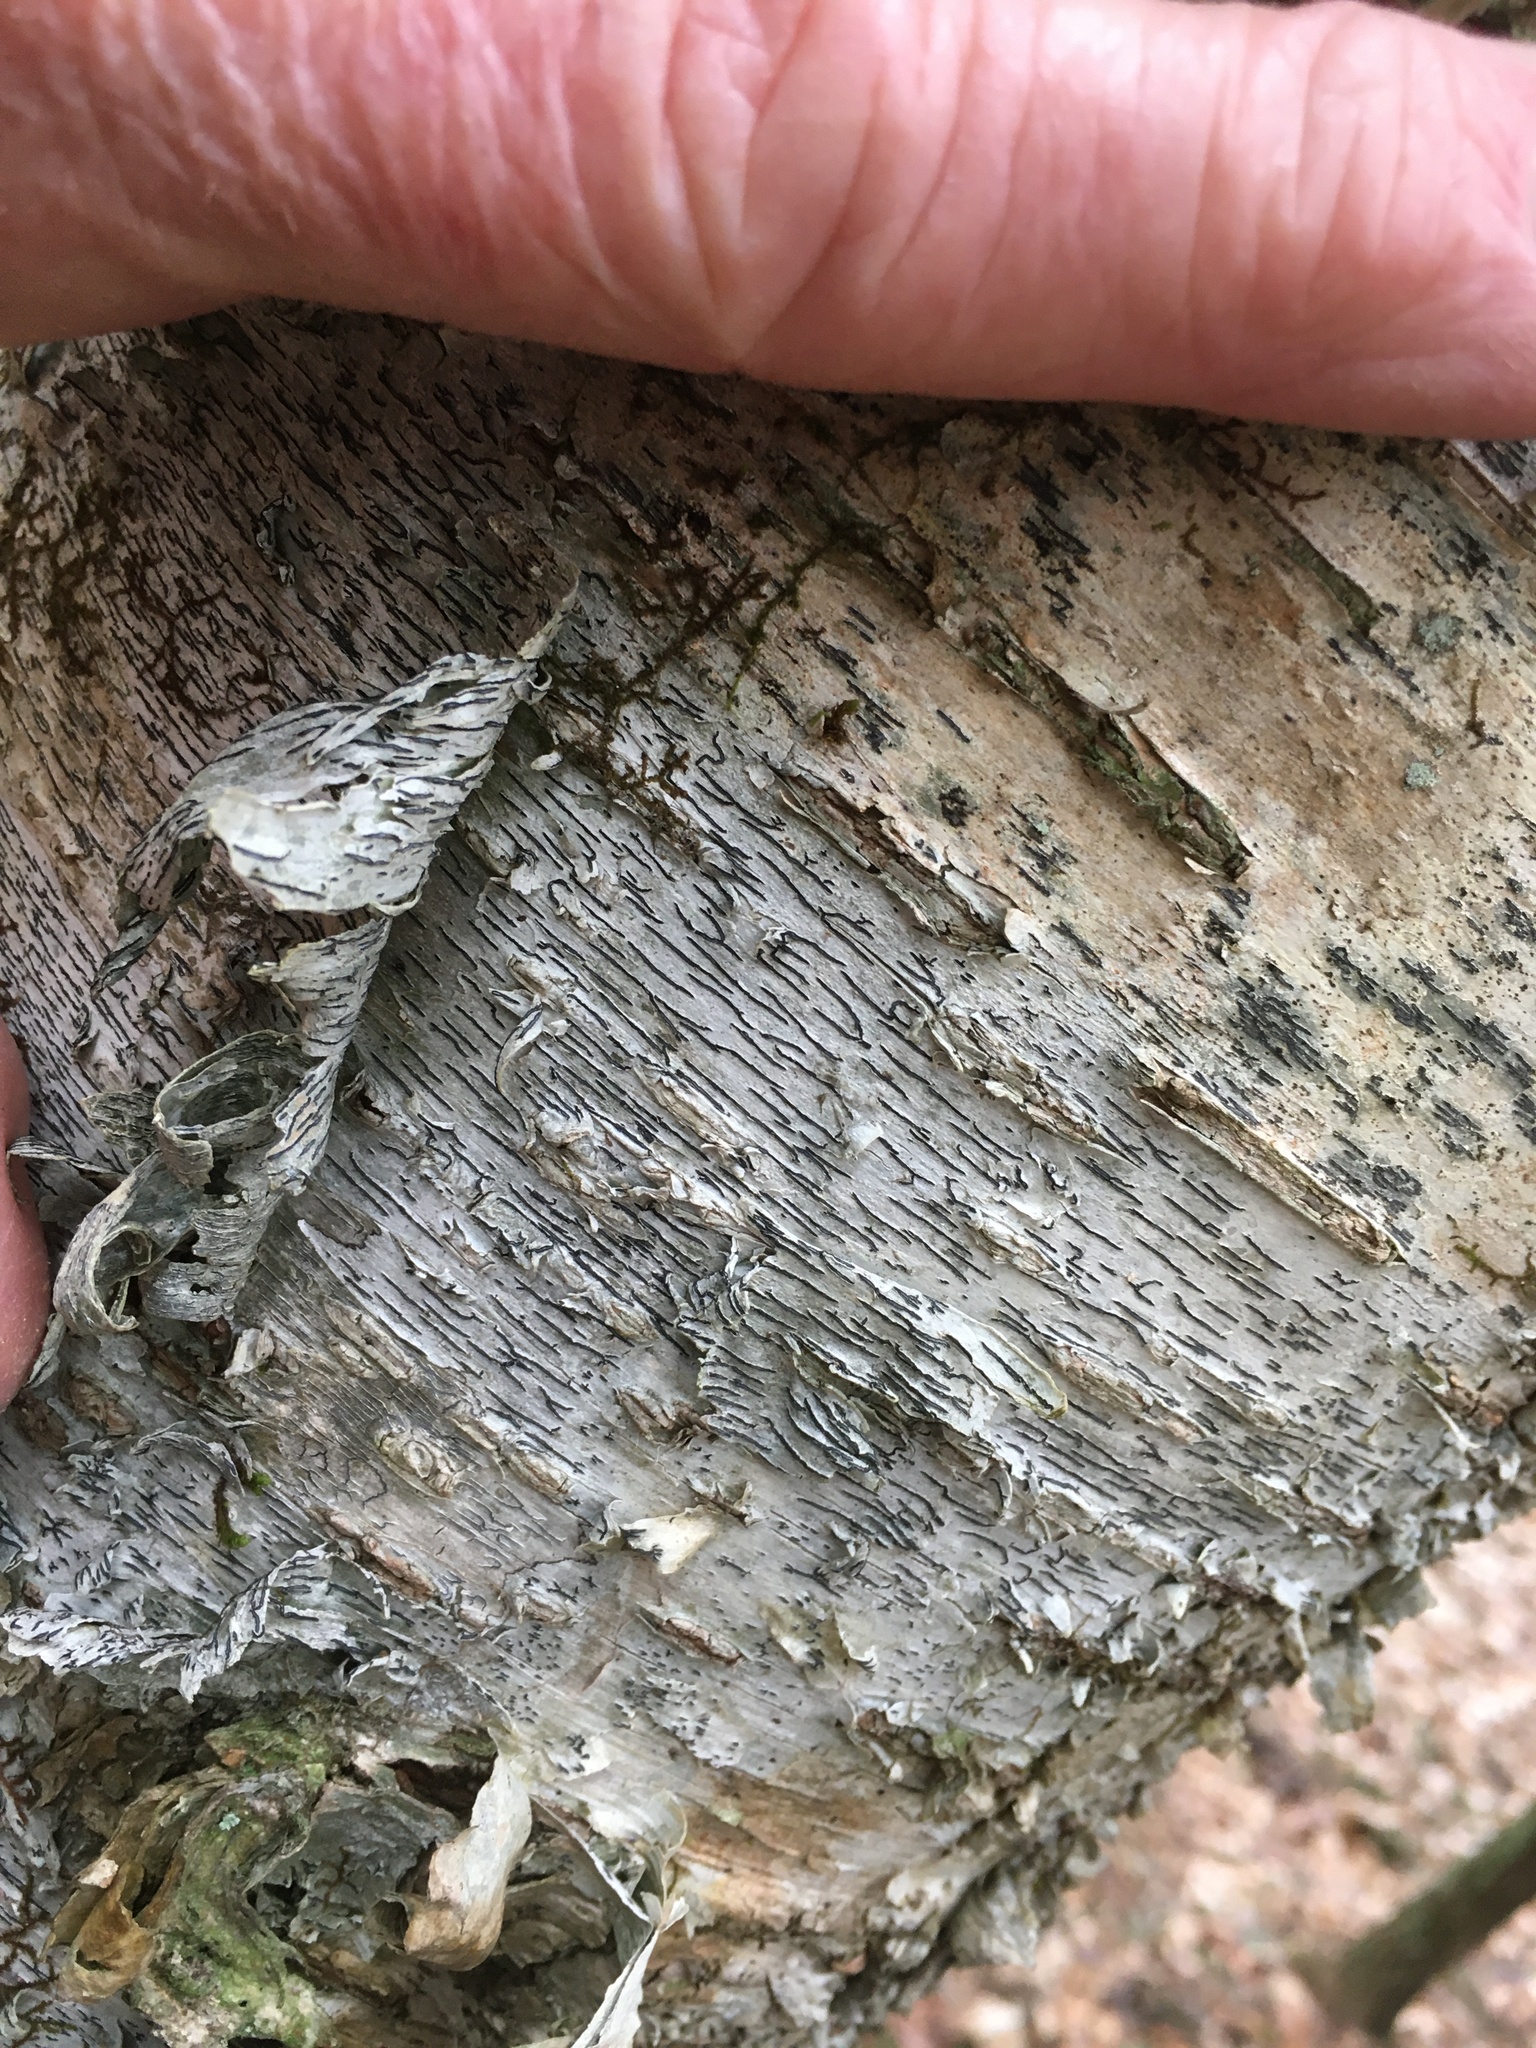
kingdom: Fungi
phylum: Ascomycota
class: Lecanoromycetes
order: Ostropales
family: Graphidaceae
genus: Graphis
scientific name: Graphis scripta
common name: Script lichen
